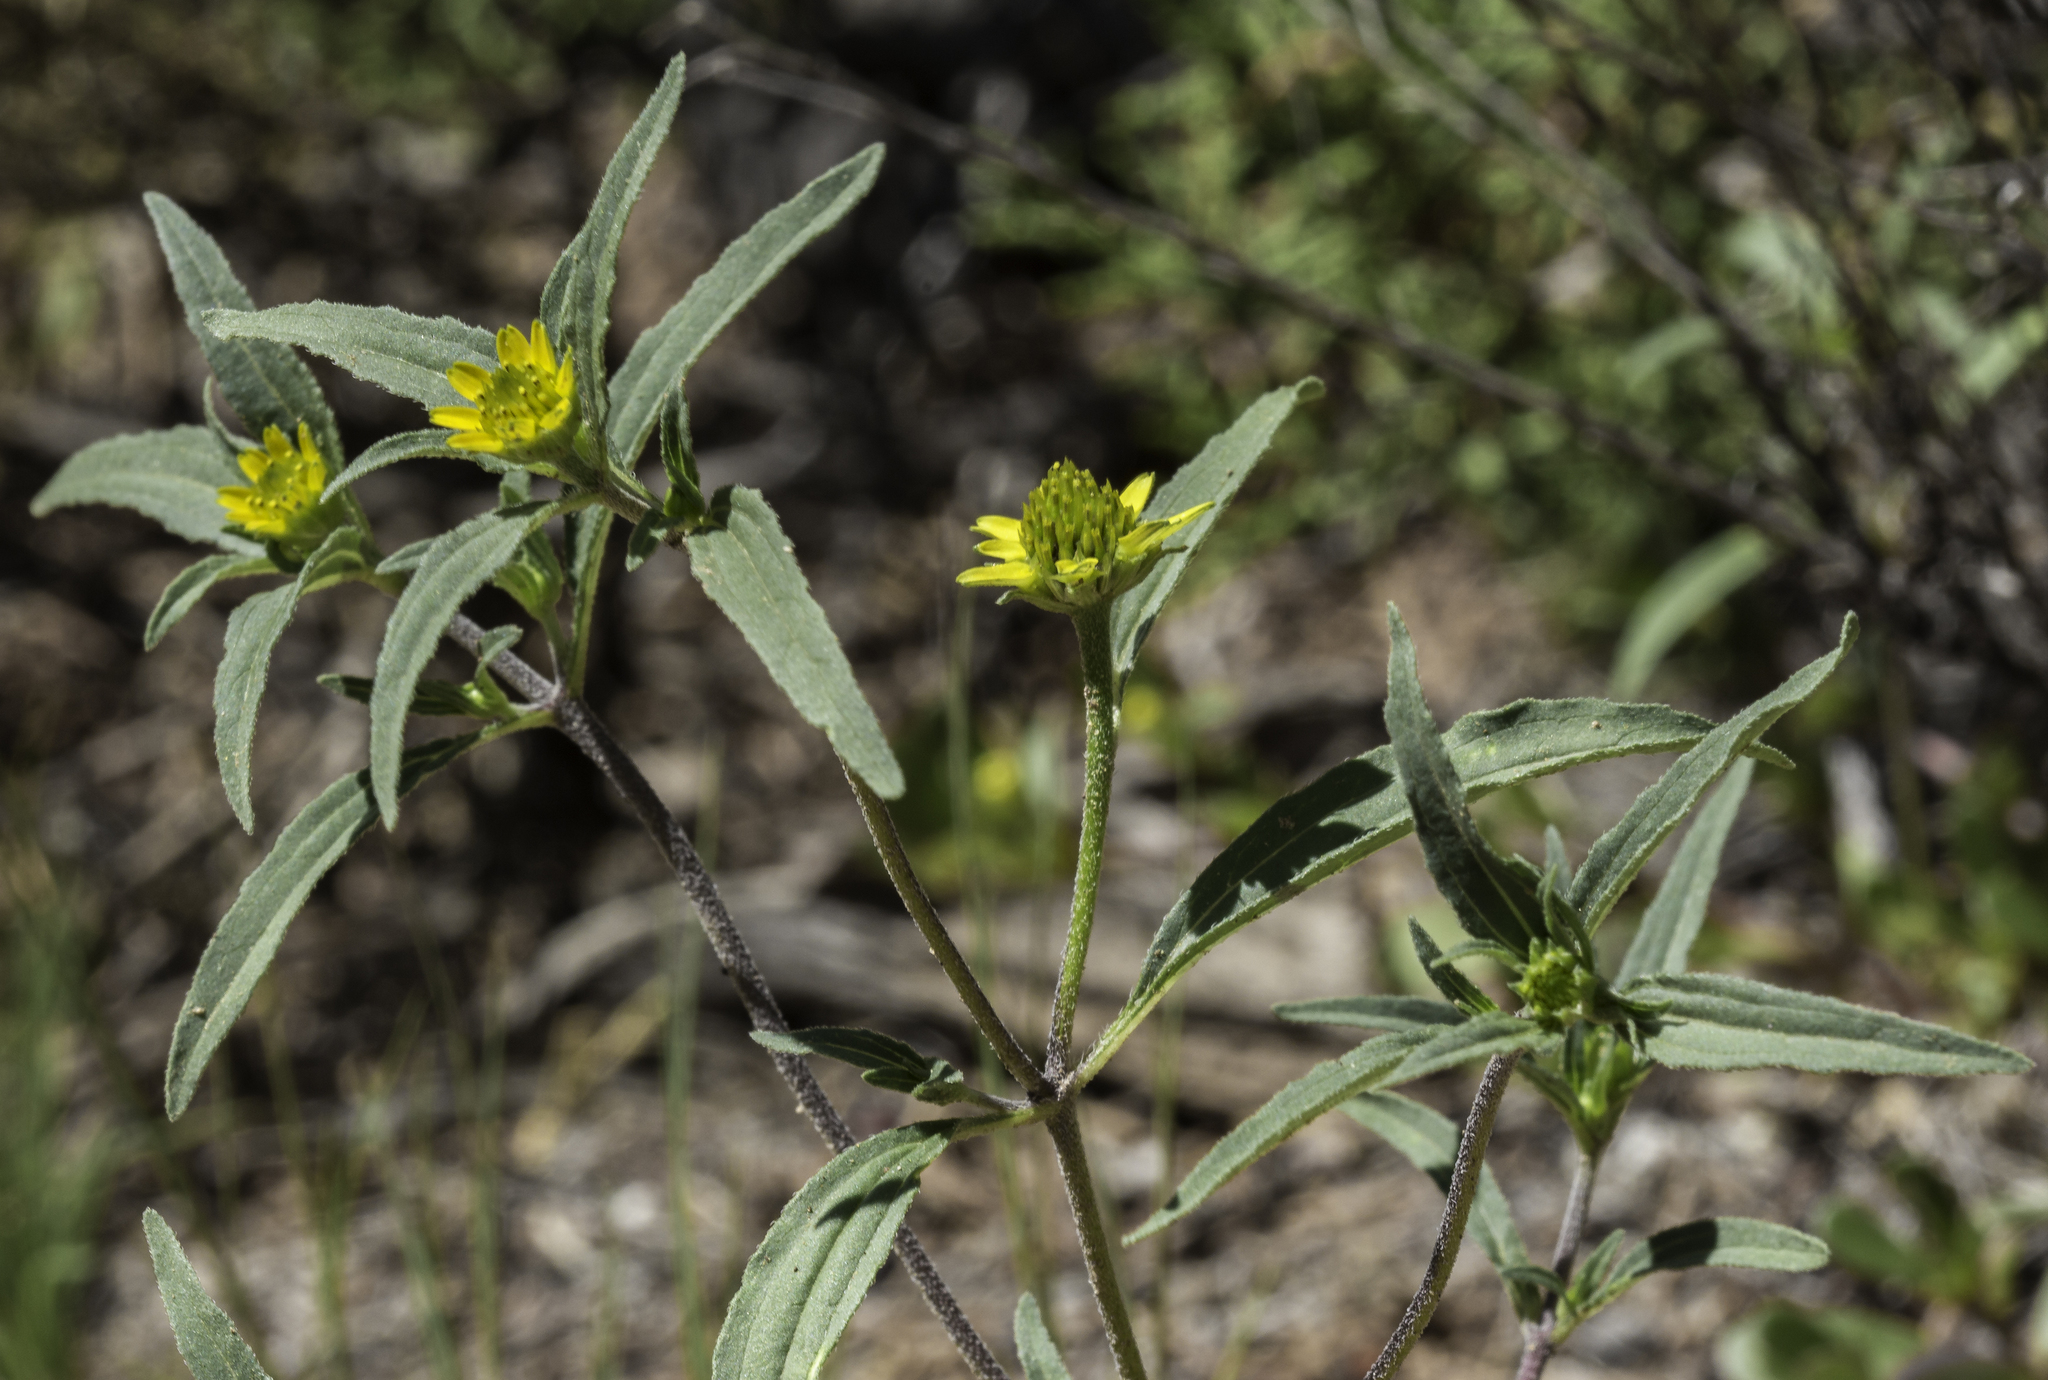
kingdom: Plantae
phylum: Tracheophyta
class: Magnoliopsida
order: Asterales
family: Asteraceae
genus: Sanvitalia
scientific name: Sanvitalia abertii
